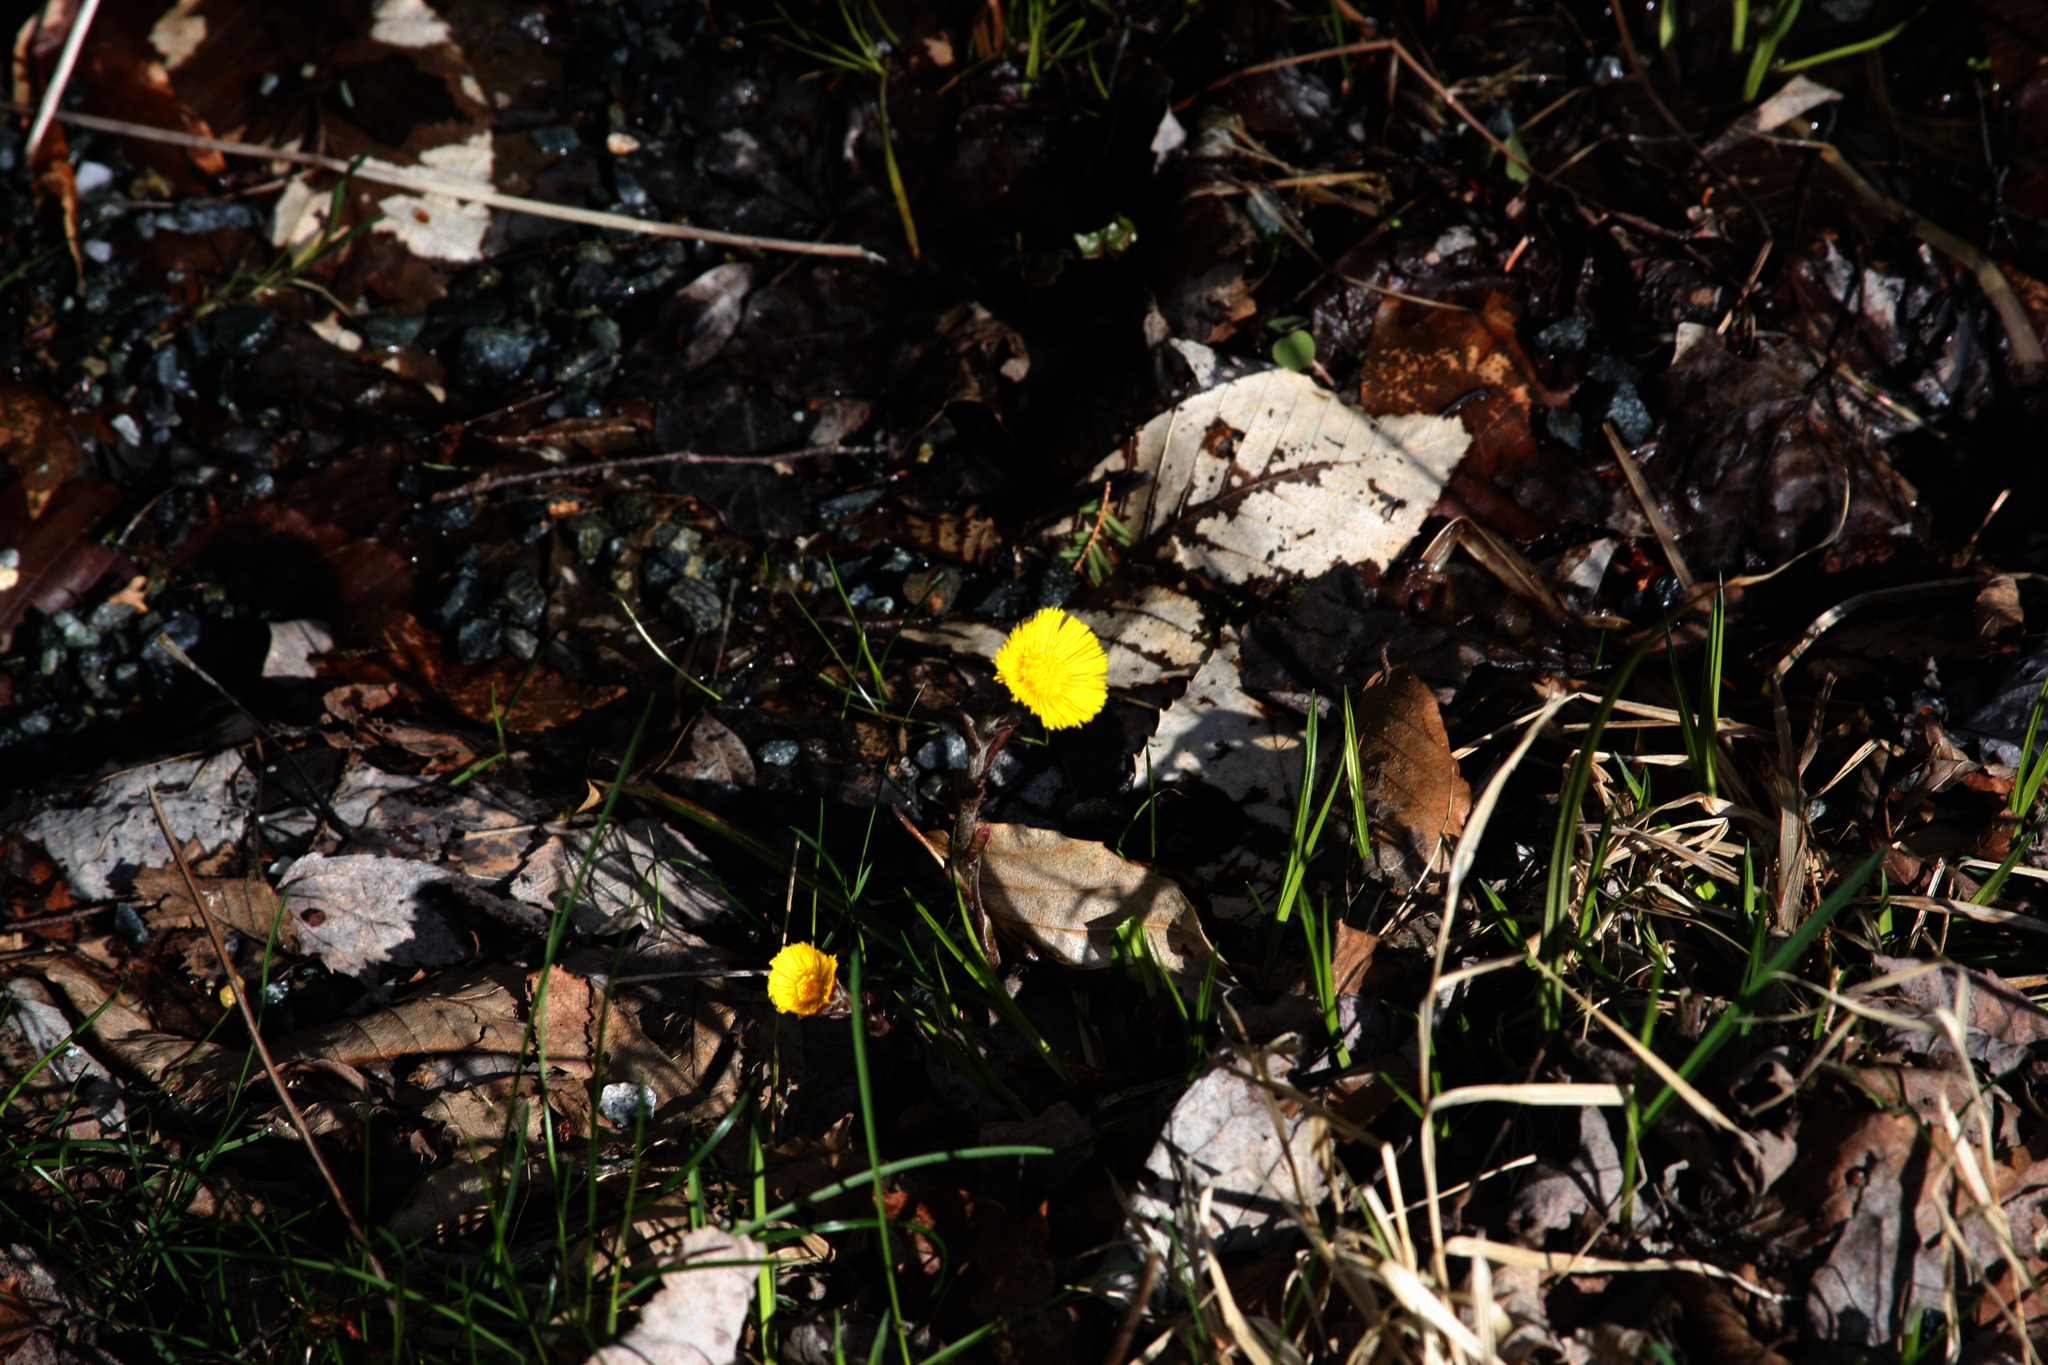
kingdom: Plantae
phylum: Tracheophyta
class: Magnoliopsida
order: Asterales
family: Asteraceae
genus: Tussilago
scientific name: Tussilago farfara
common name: Coltsfoot
